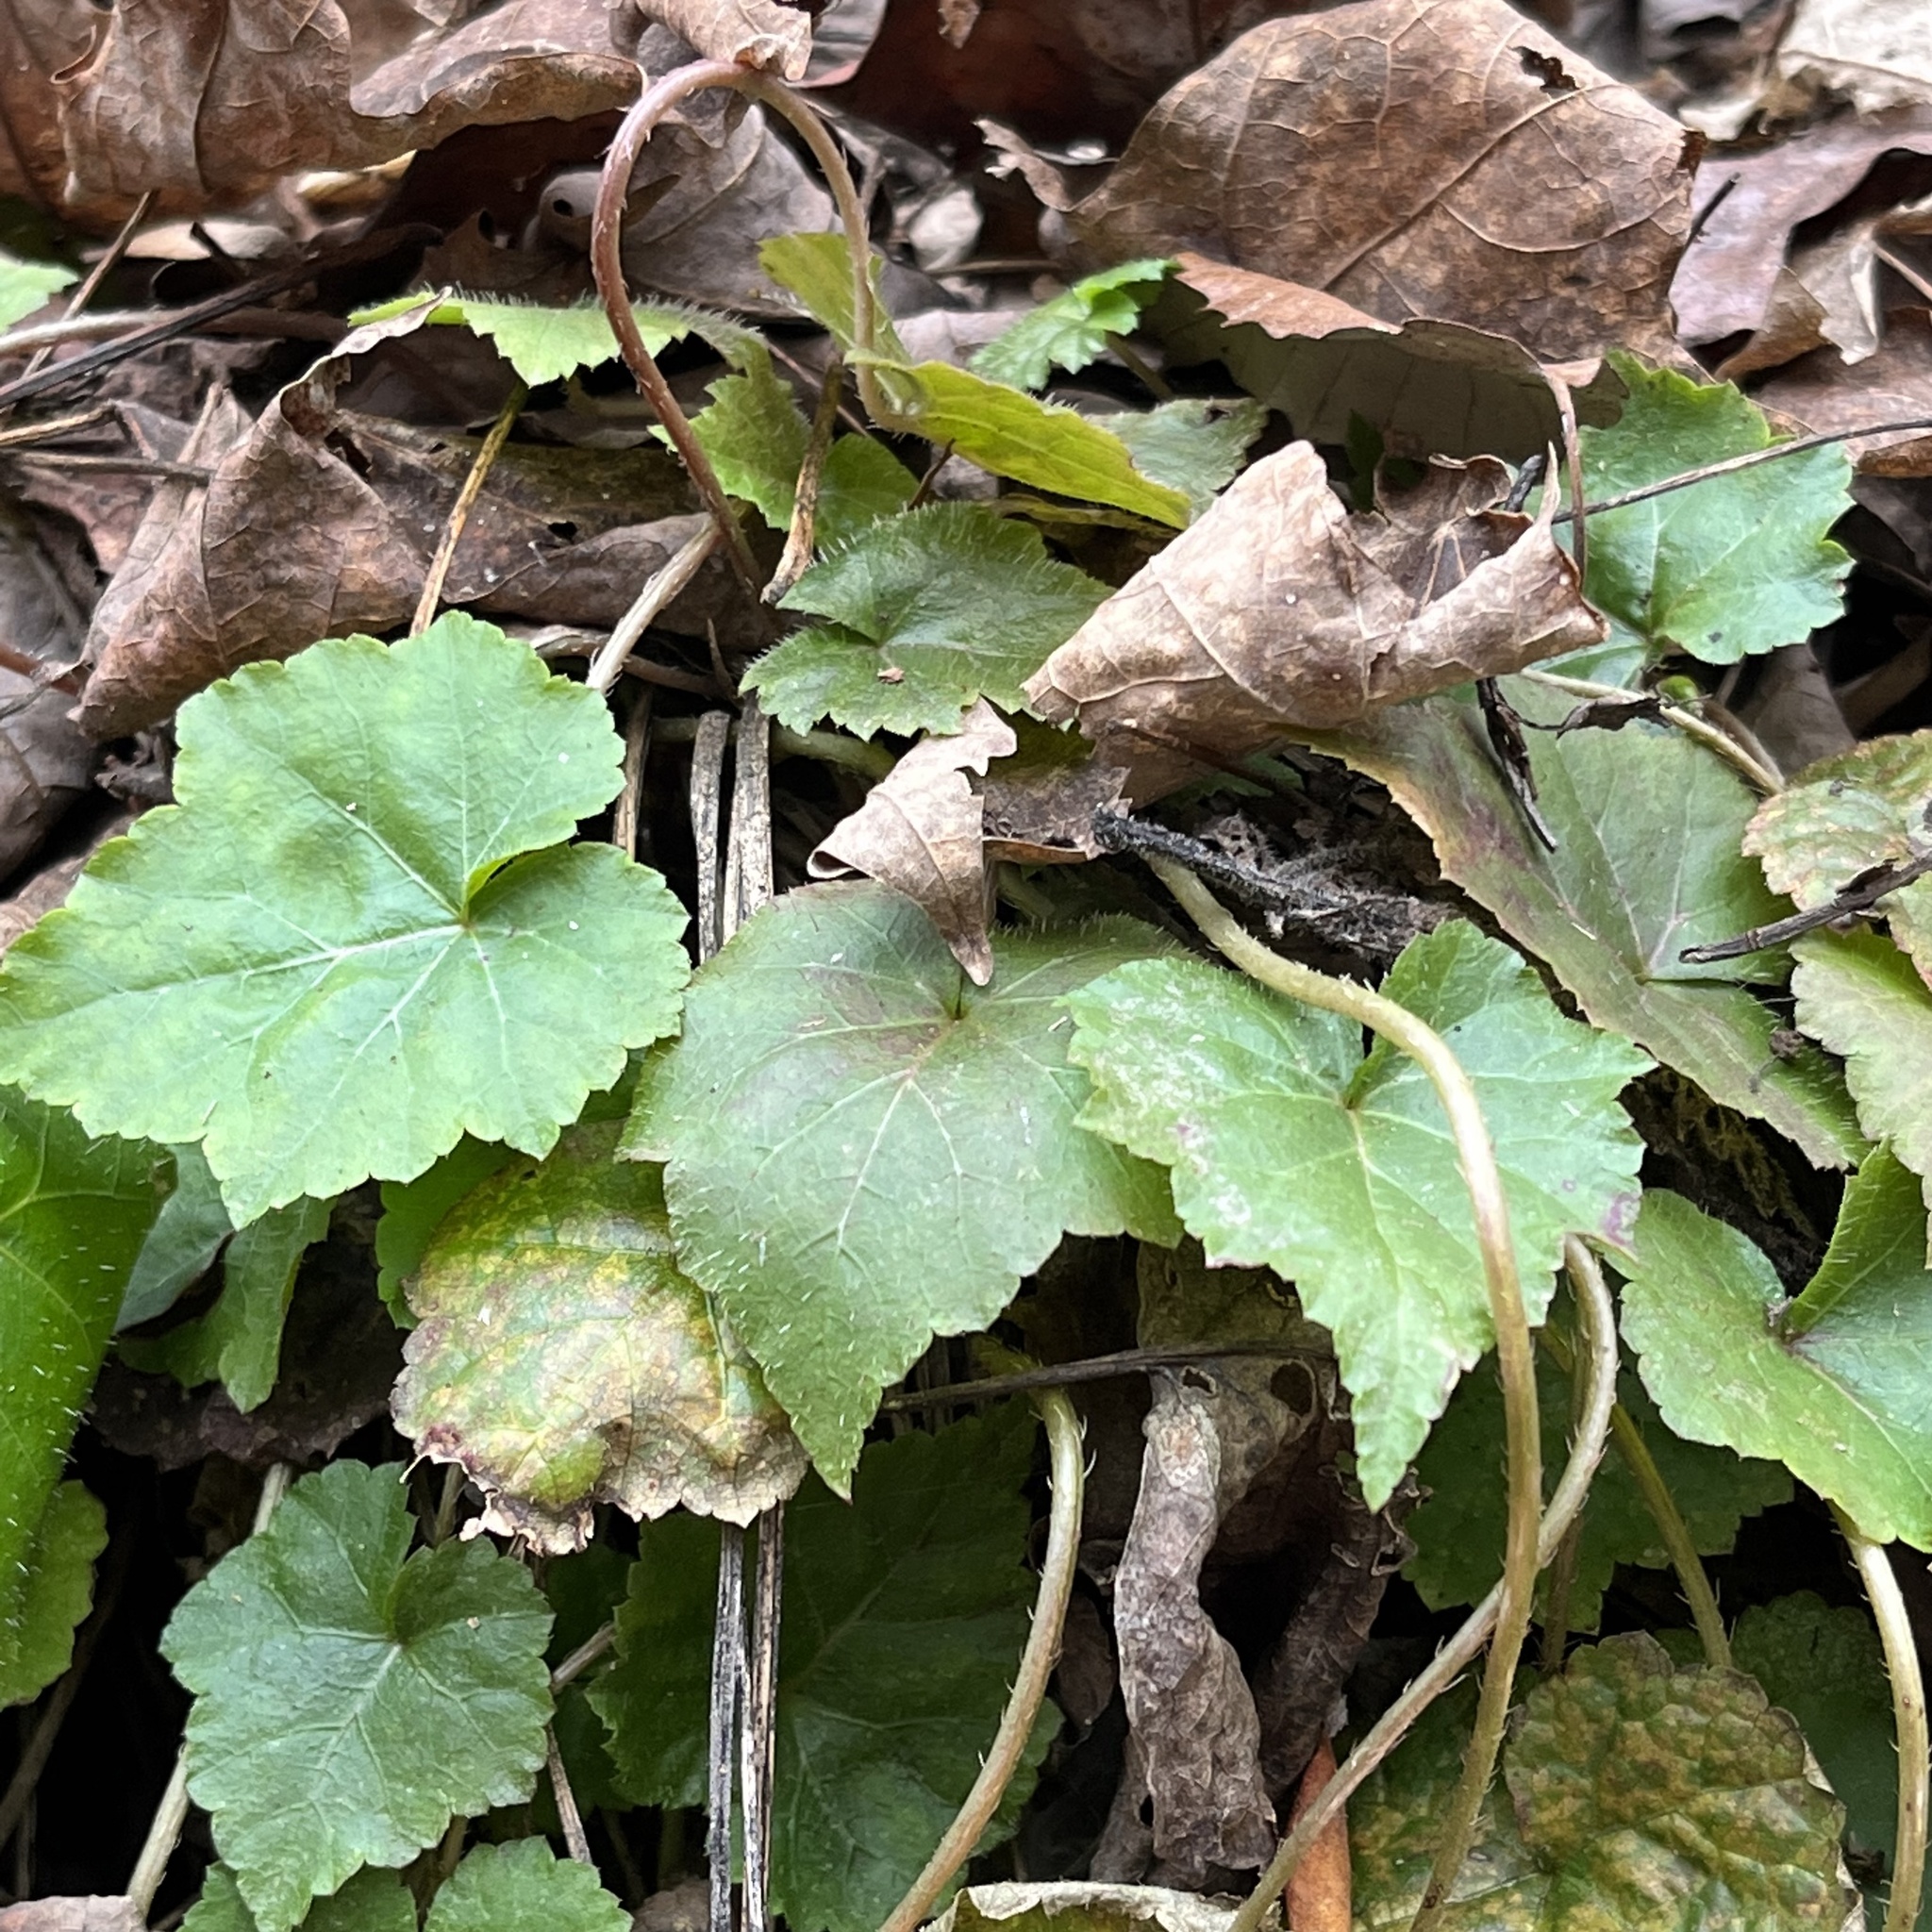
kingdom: Plantae
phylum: Tracheophyta
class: Magnoliopsida
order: Saxifragales
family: Saxifragaceae
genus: Mitella
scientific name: Mitella diphylla
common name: Coolwort
